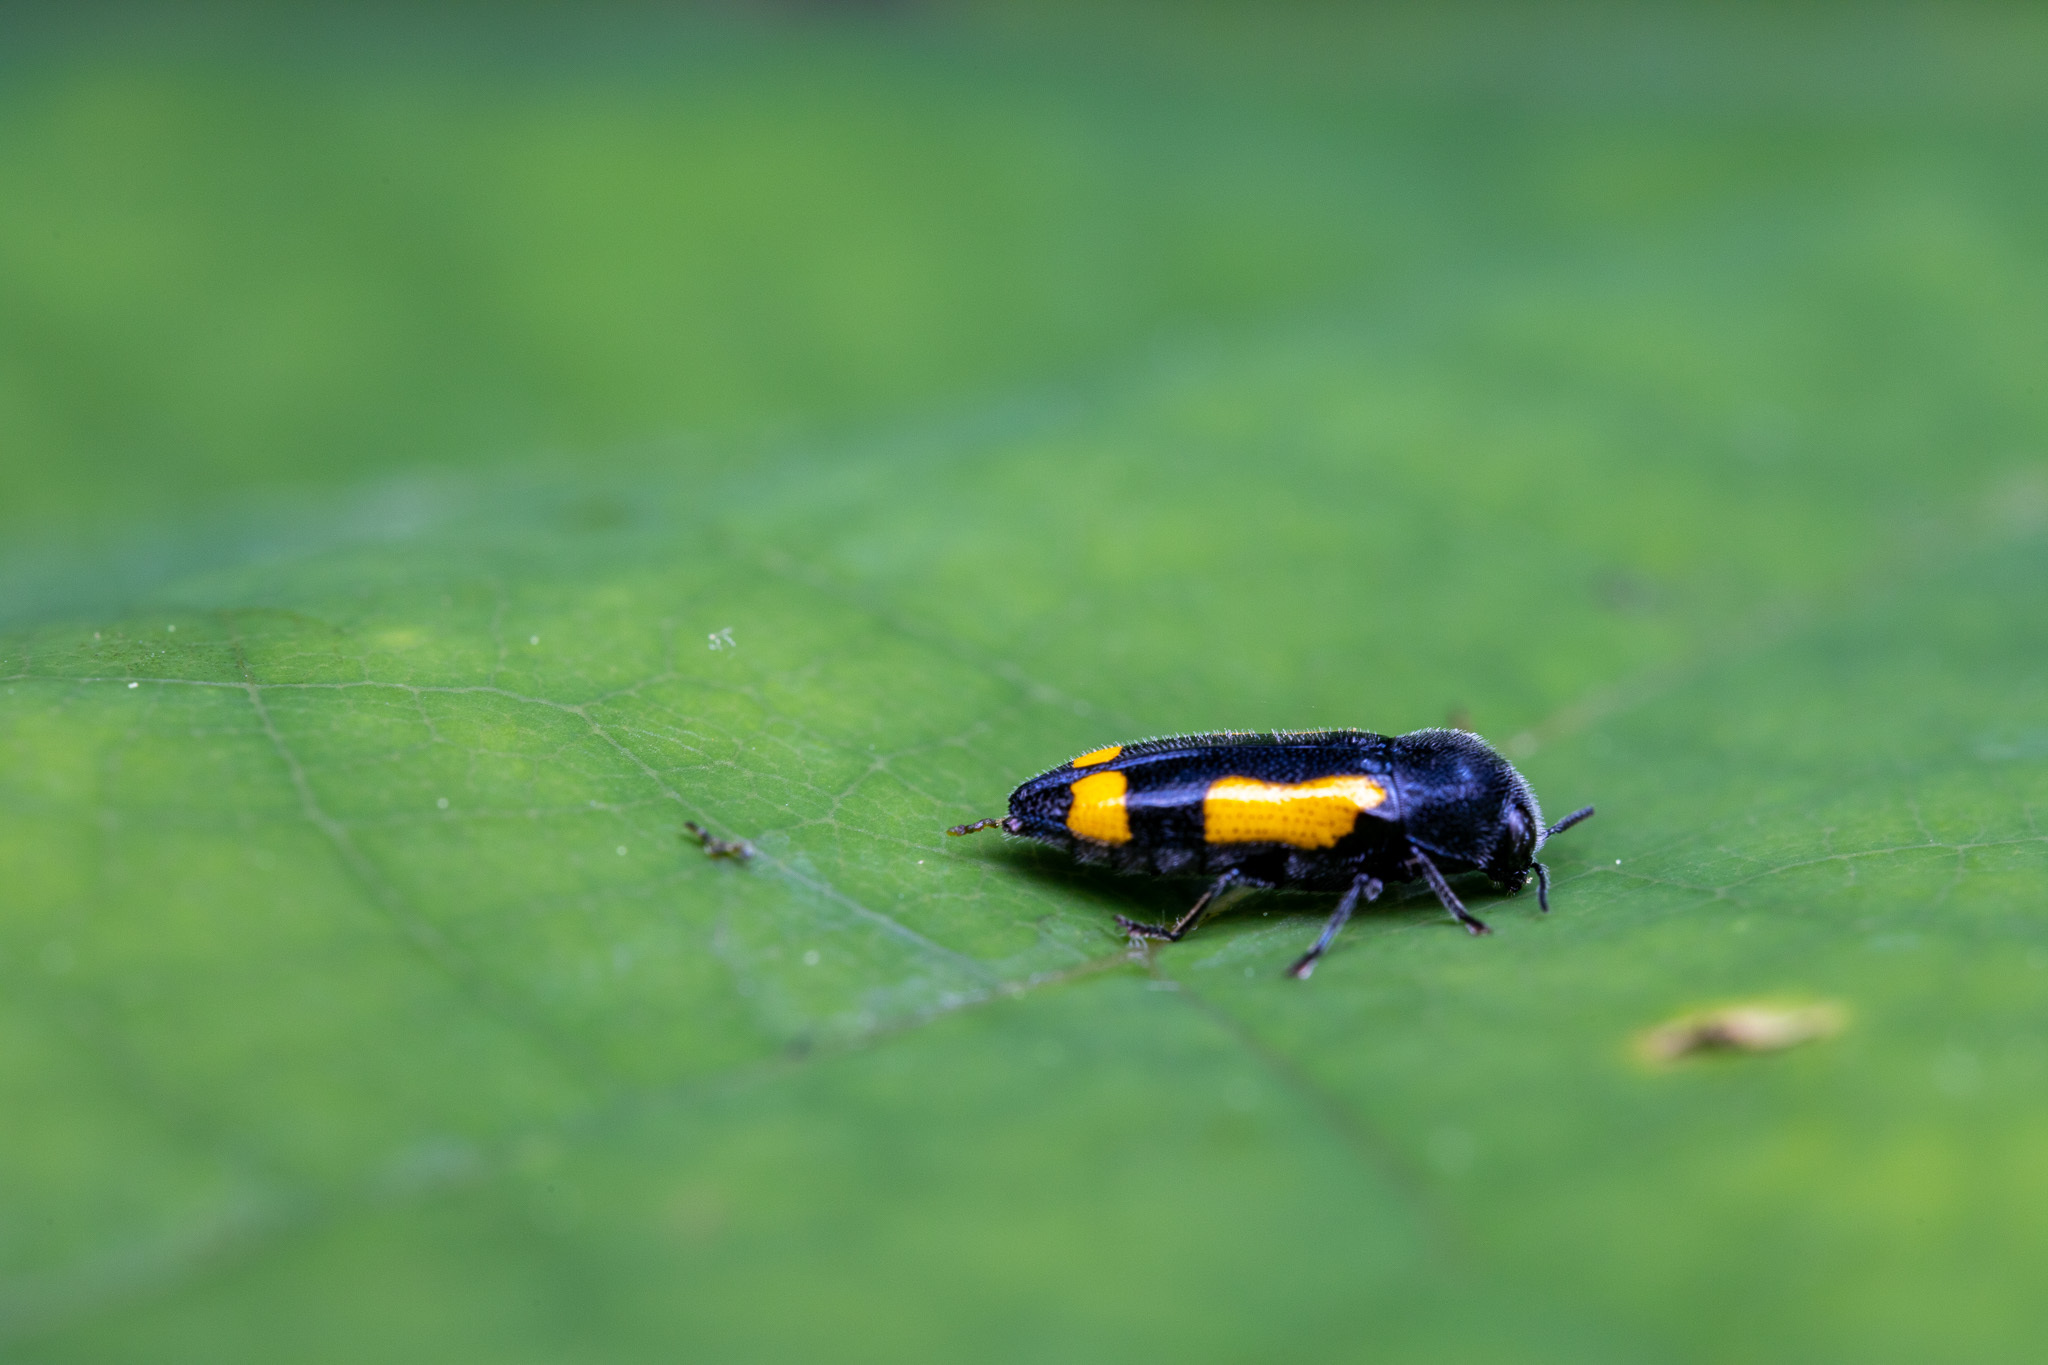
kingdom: Animalia
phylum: Arthropoda
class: Insecta
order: Coleoptera
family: Buprestidae
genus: Ptosima
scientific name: Ptosima gibbicollis
